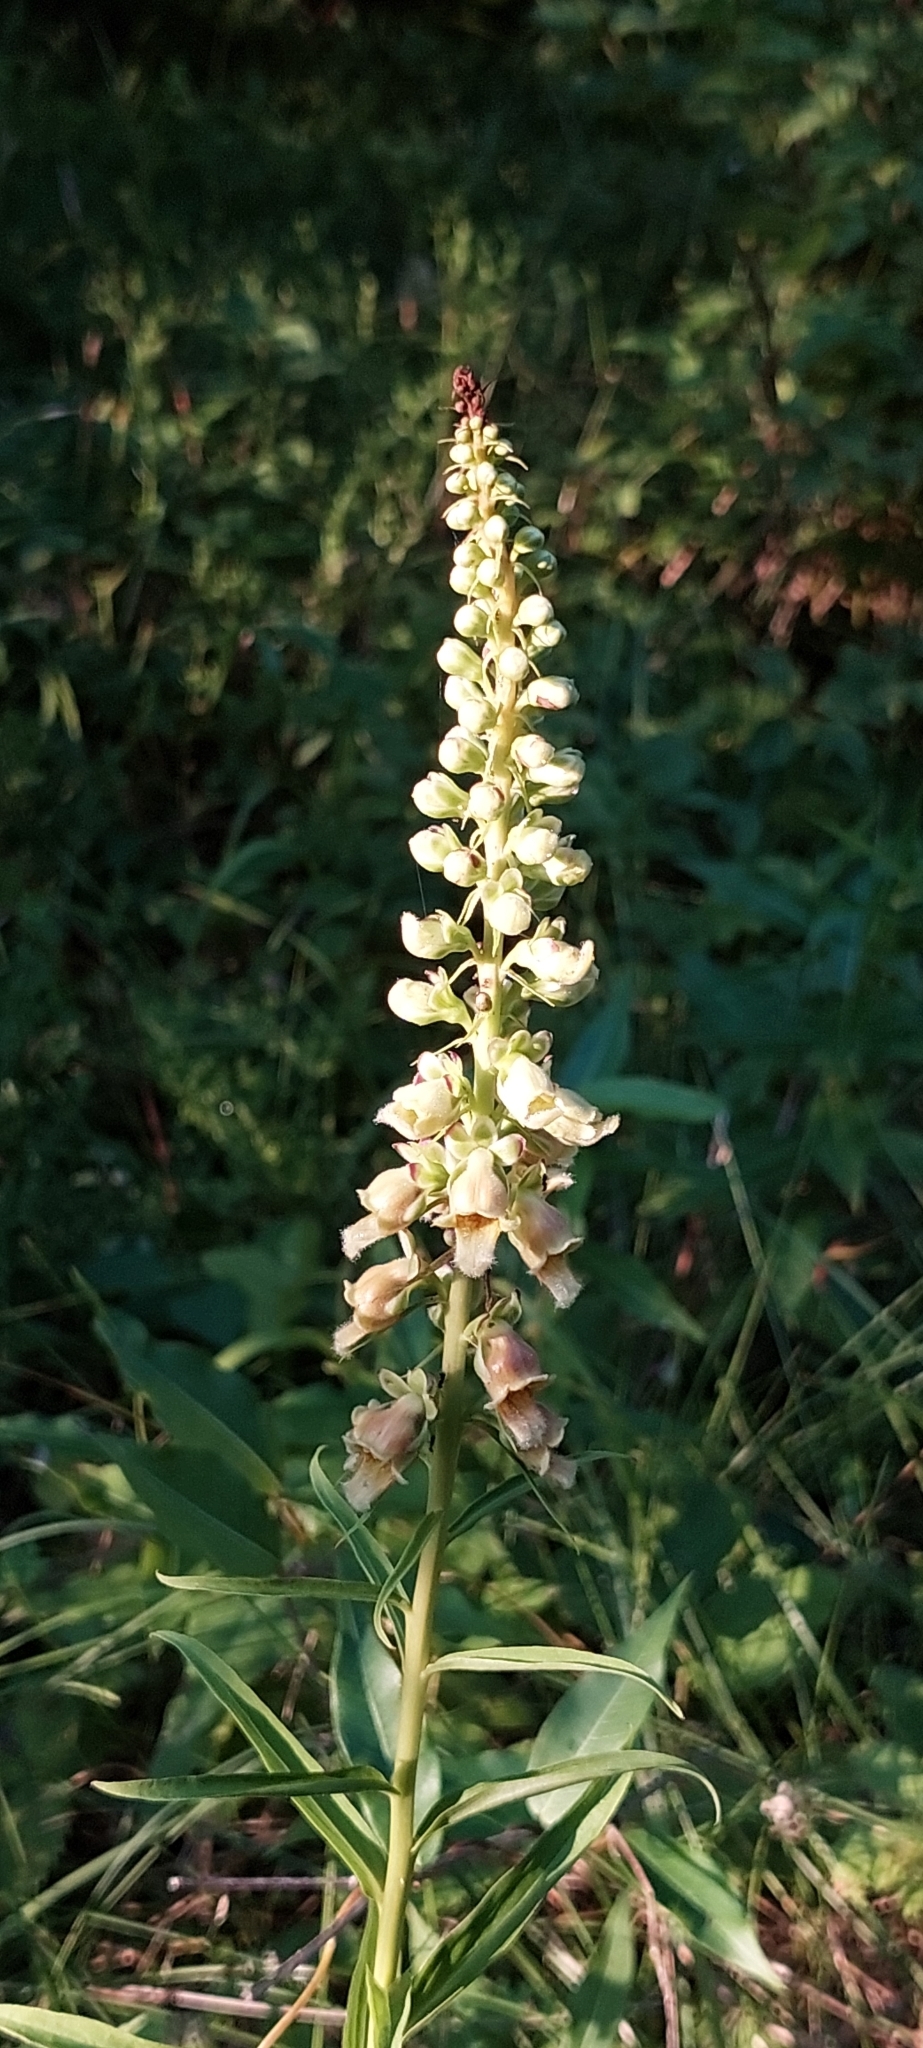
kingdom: Plantae
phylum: Tracheophyta
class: Magnoliopsida
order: Lamiales
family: Plantaginaceae
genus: Digitalis
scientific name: Digitalis ferruginea
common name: Rusty foxglove
